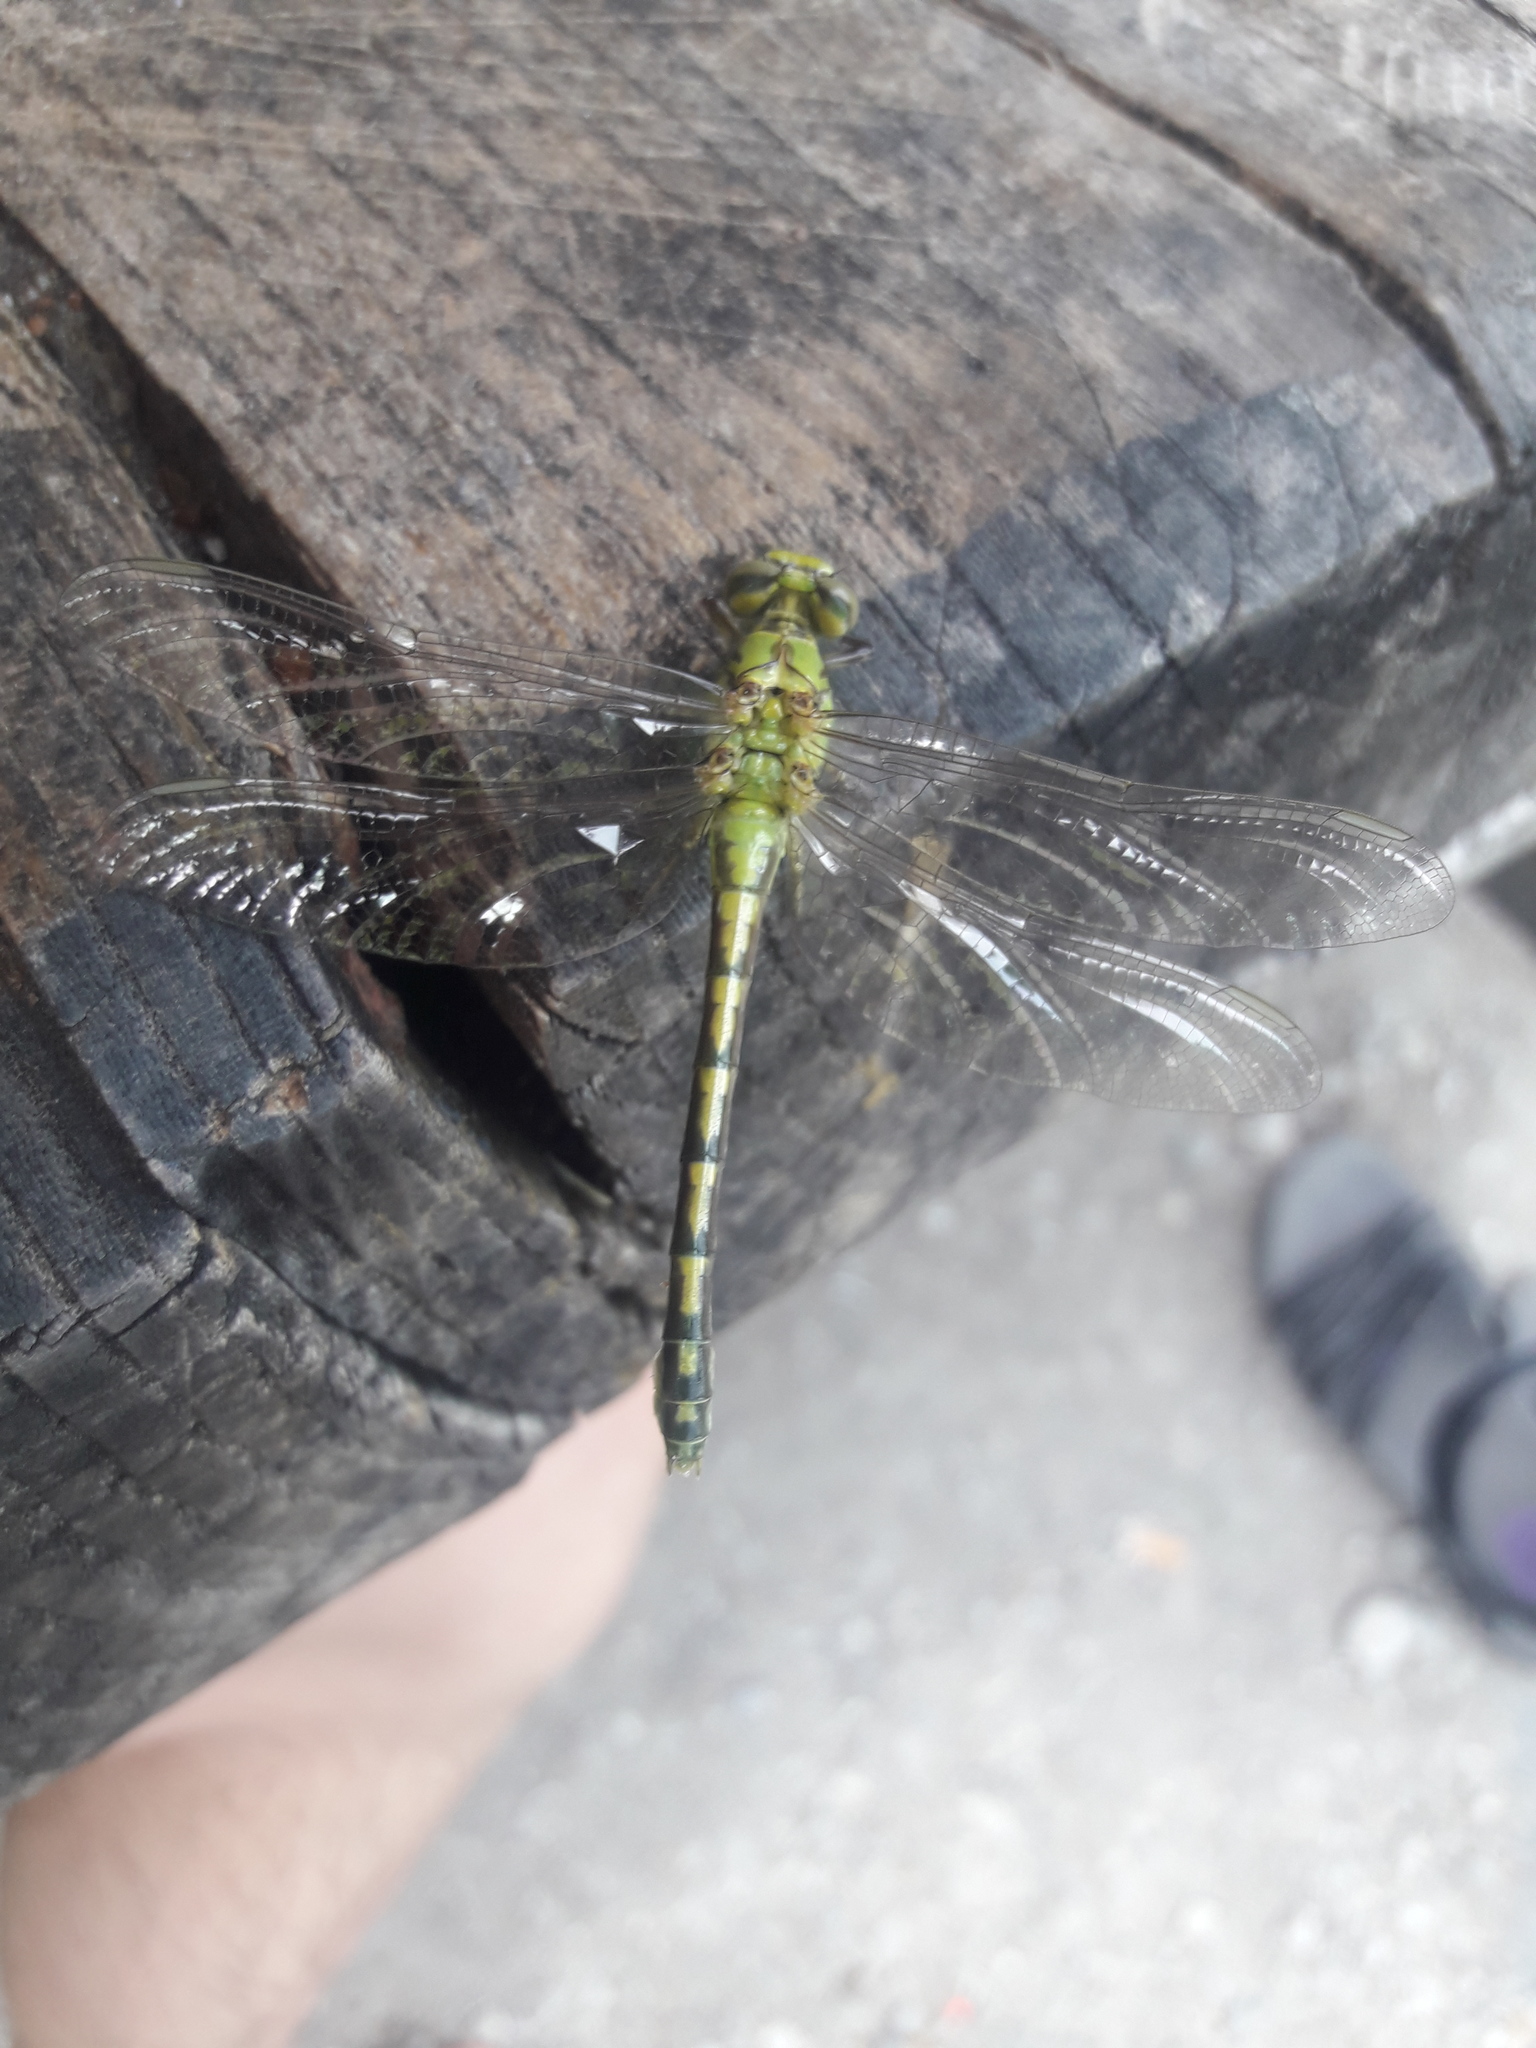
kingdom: Animalia
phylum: Arthropoda
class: Insecta
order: Odonata
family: Gomphidae
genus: Ophiogomphus
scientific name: Ophiogomphus cecilia
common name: Green snaketail
